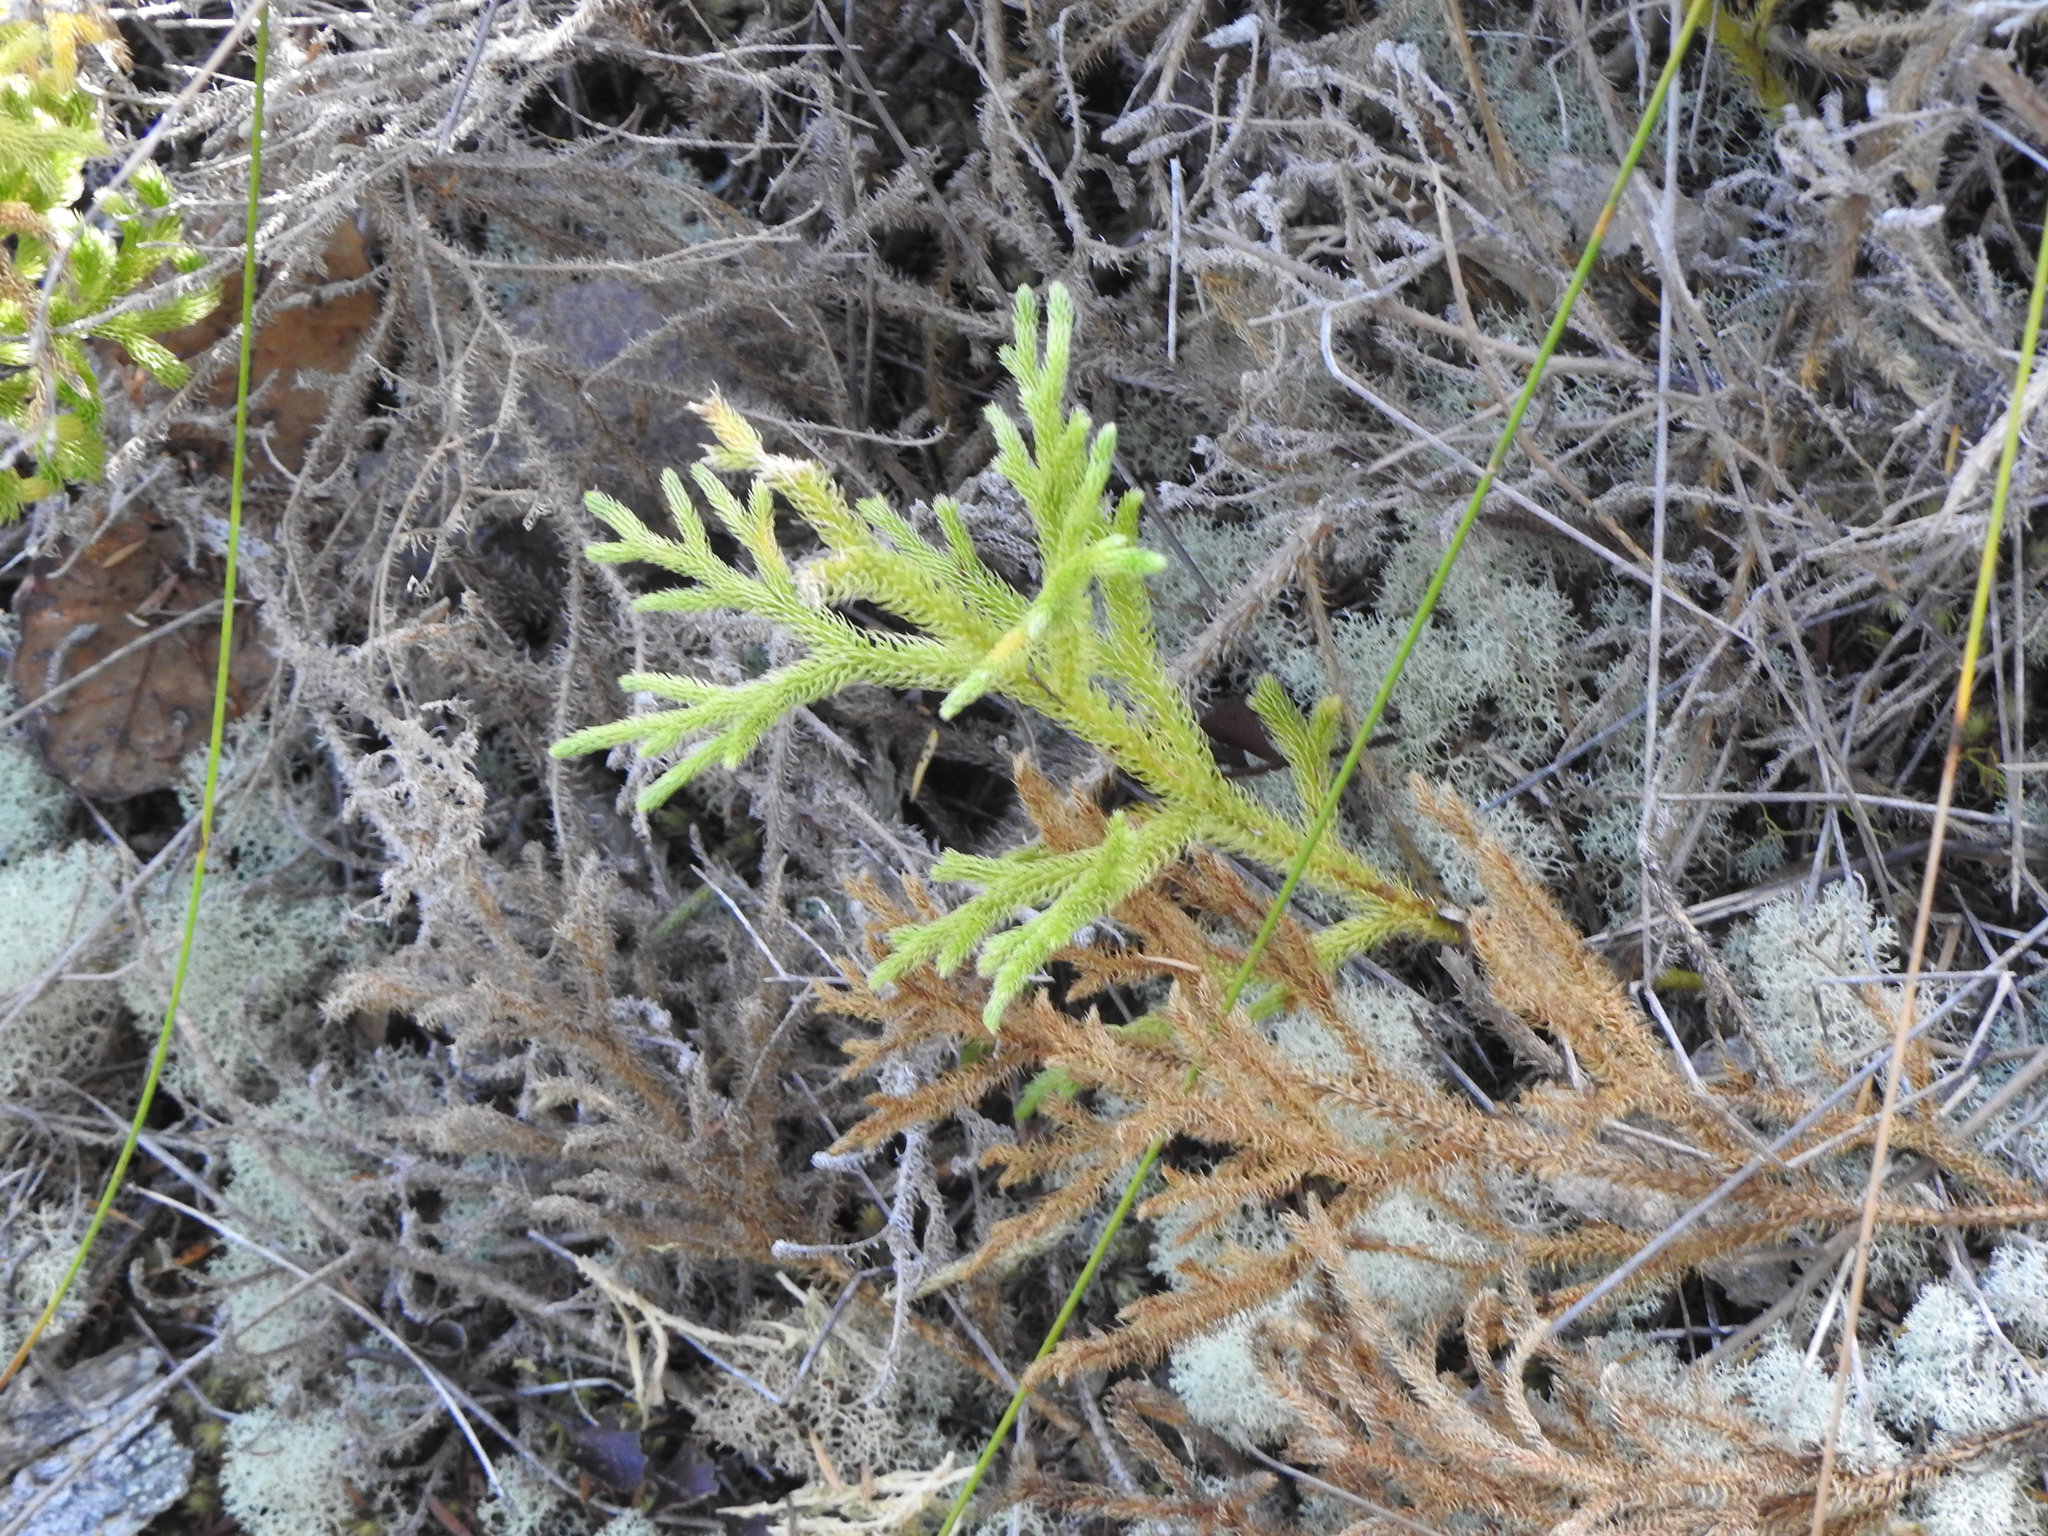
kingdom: Plantae
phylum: Tracheophyta
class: Lycopodiopsida
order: Lycopodiales
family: Lycopodiaceae
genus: Palhinhaea
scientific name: Palhinhaea cernua
